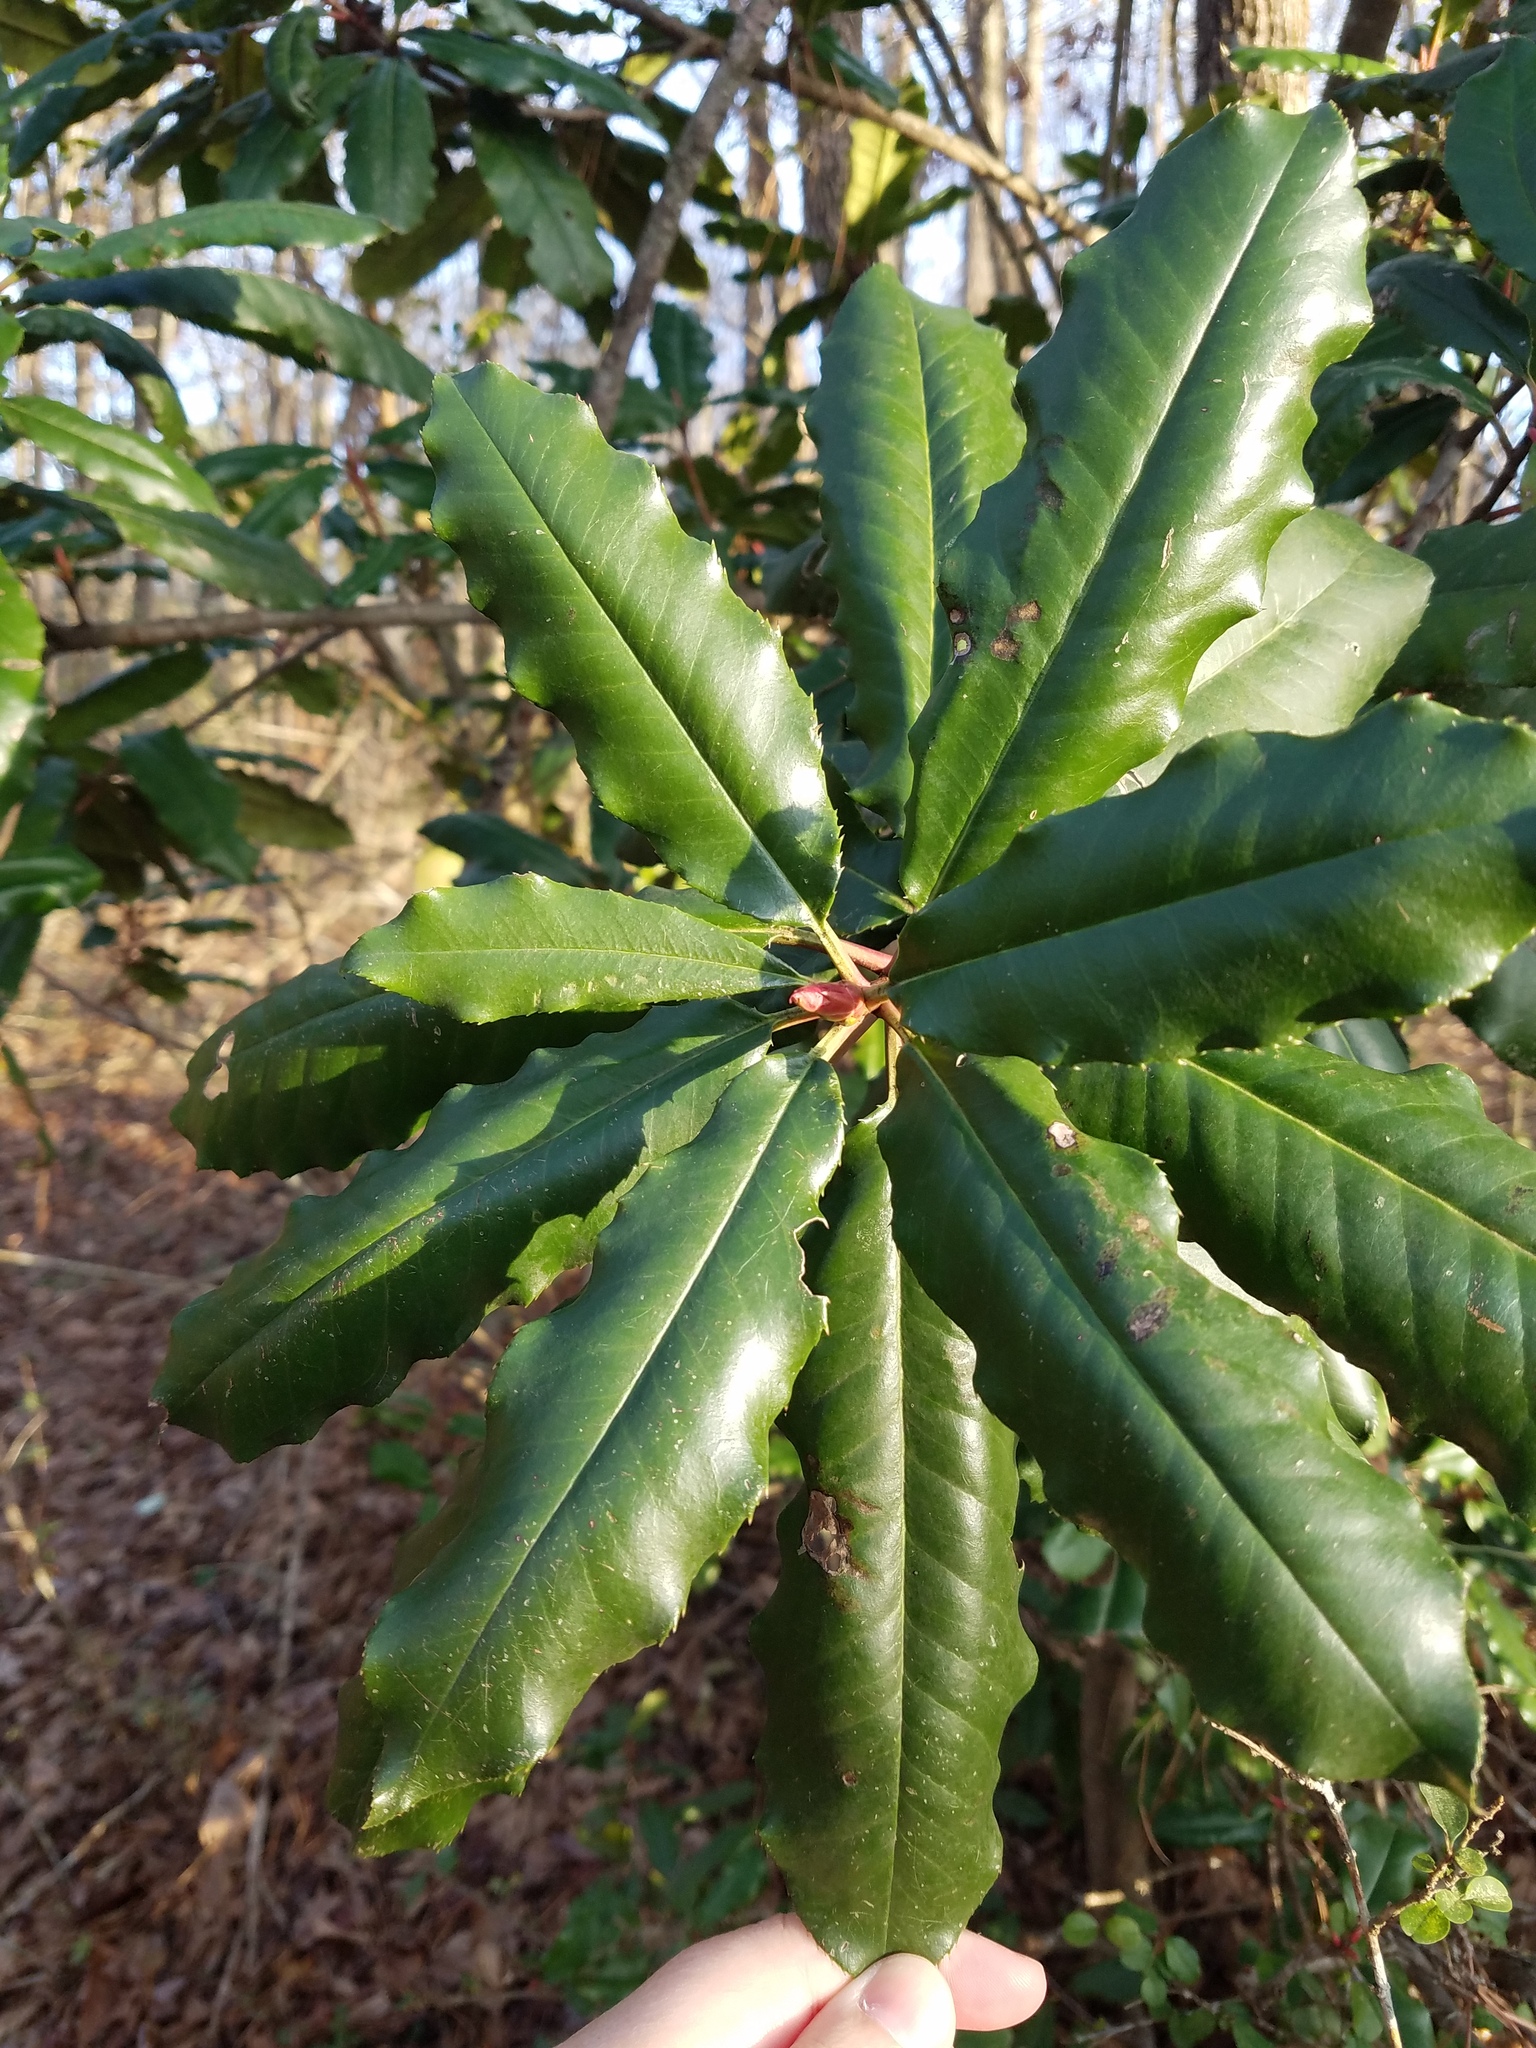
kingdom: Plantae
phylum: Tracheophyta
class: Magnoliopsida
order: Rosales
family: Rosaceae
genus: Photinia
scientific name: Photinia serratifolia
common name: Taiwanese photinia
